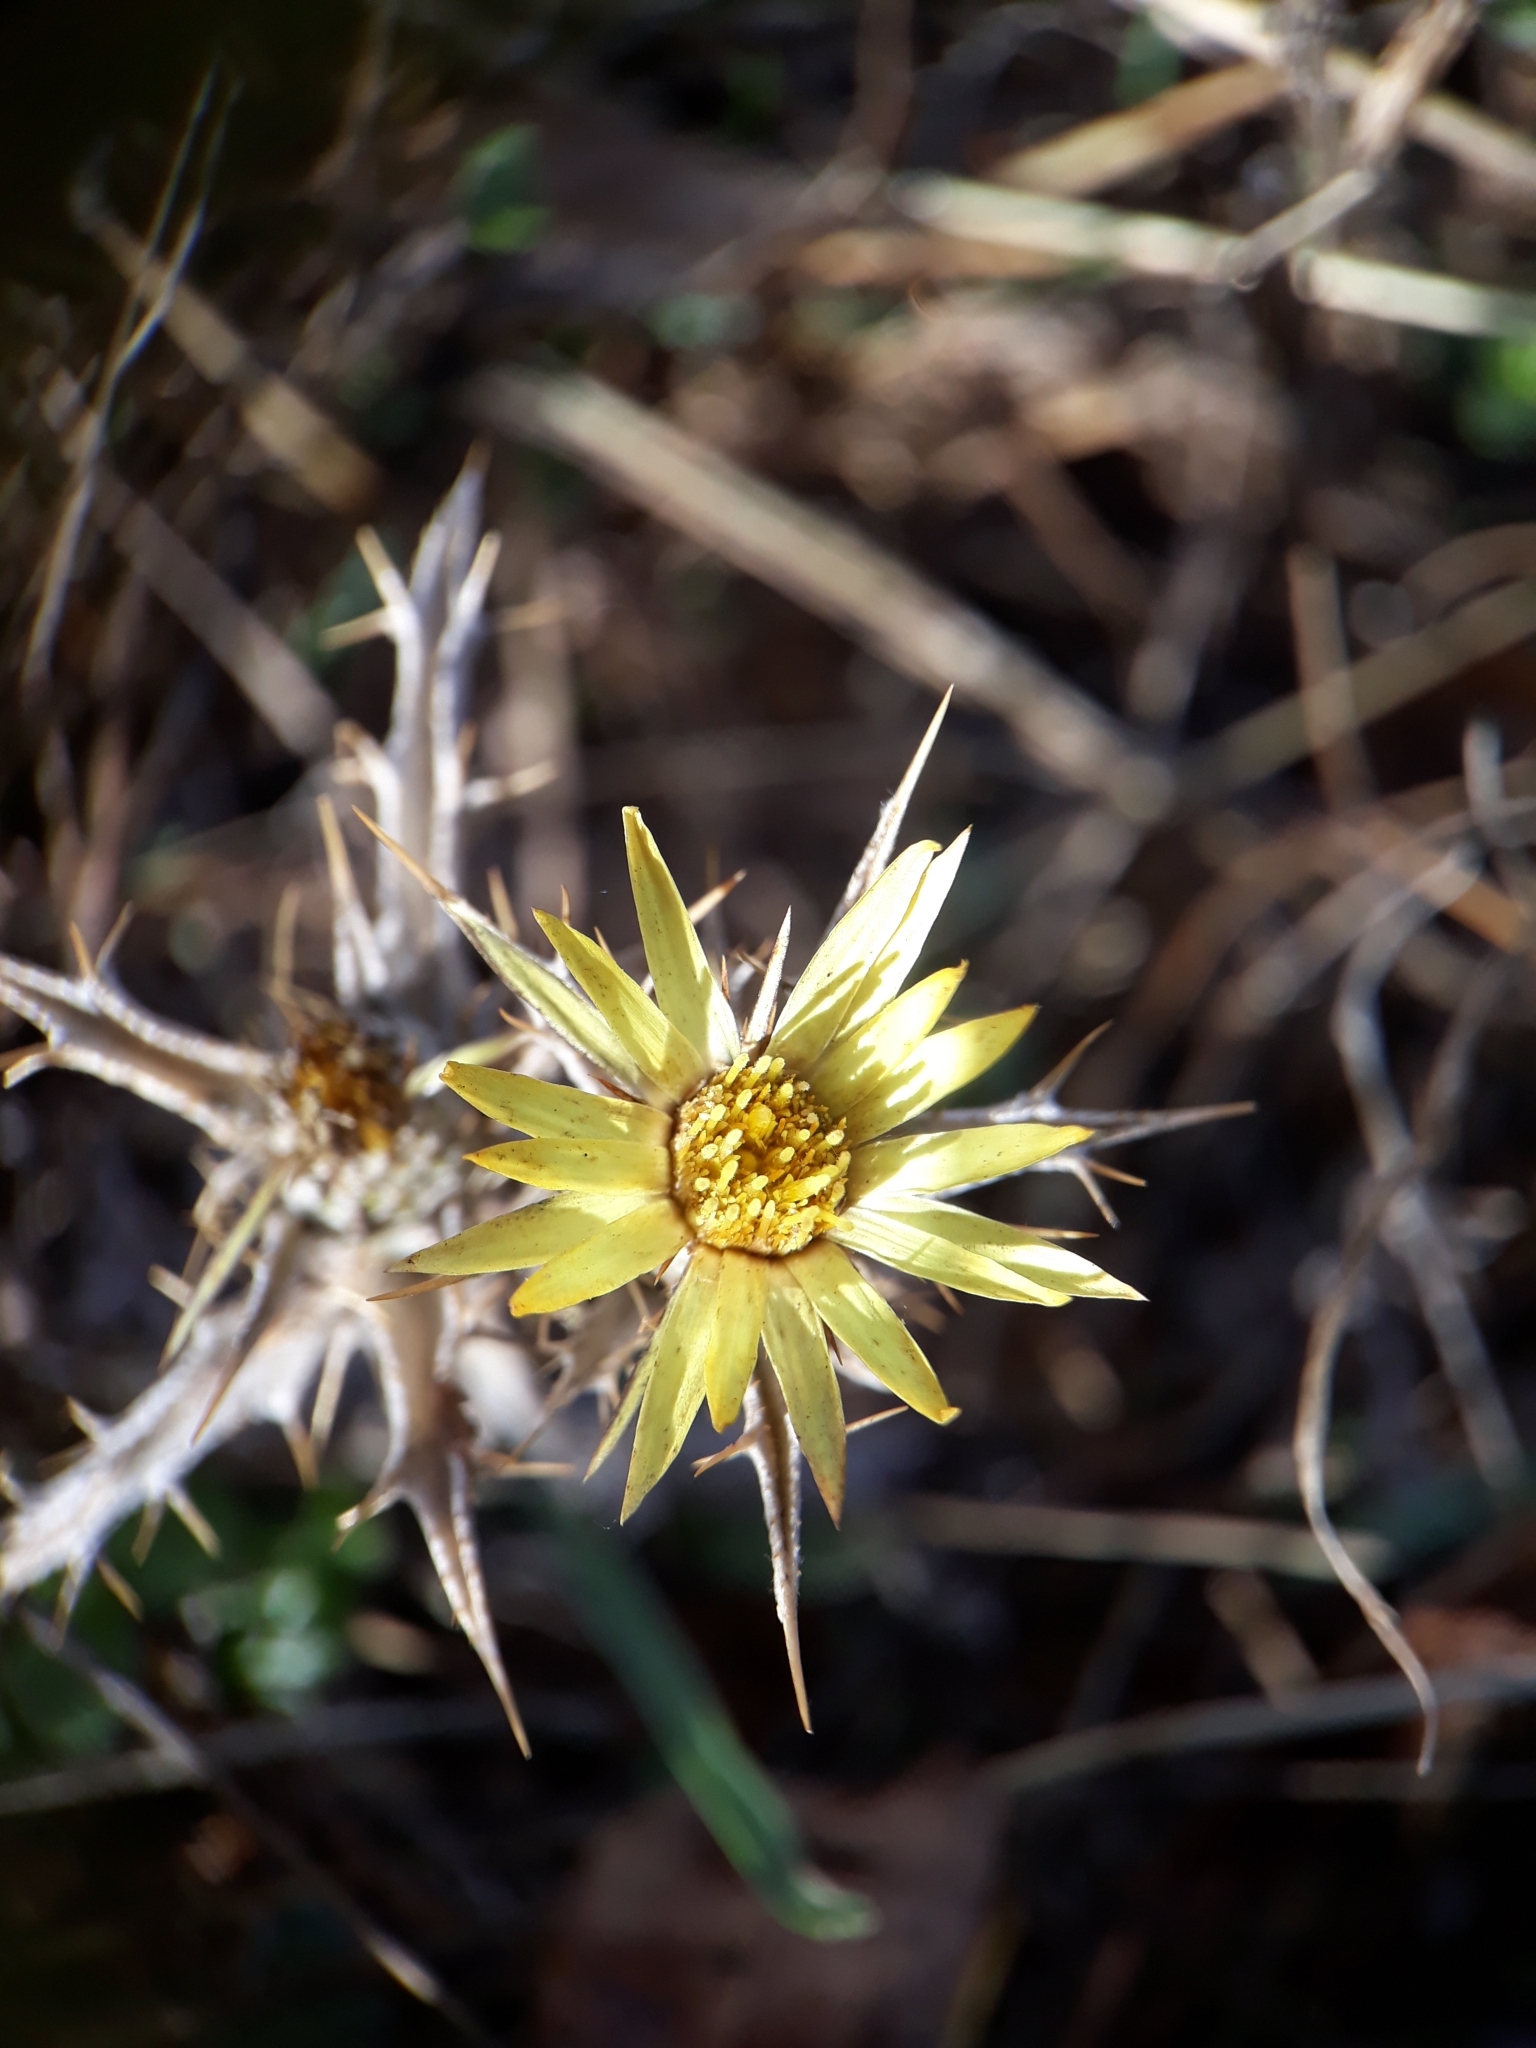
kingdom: Plantae
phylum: Tracheophyta
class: Magnoliopsida
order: Asterales
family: Asteraceae
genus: Carlina
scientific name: Carlina racemosa
